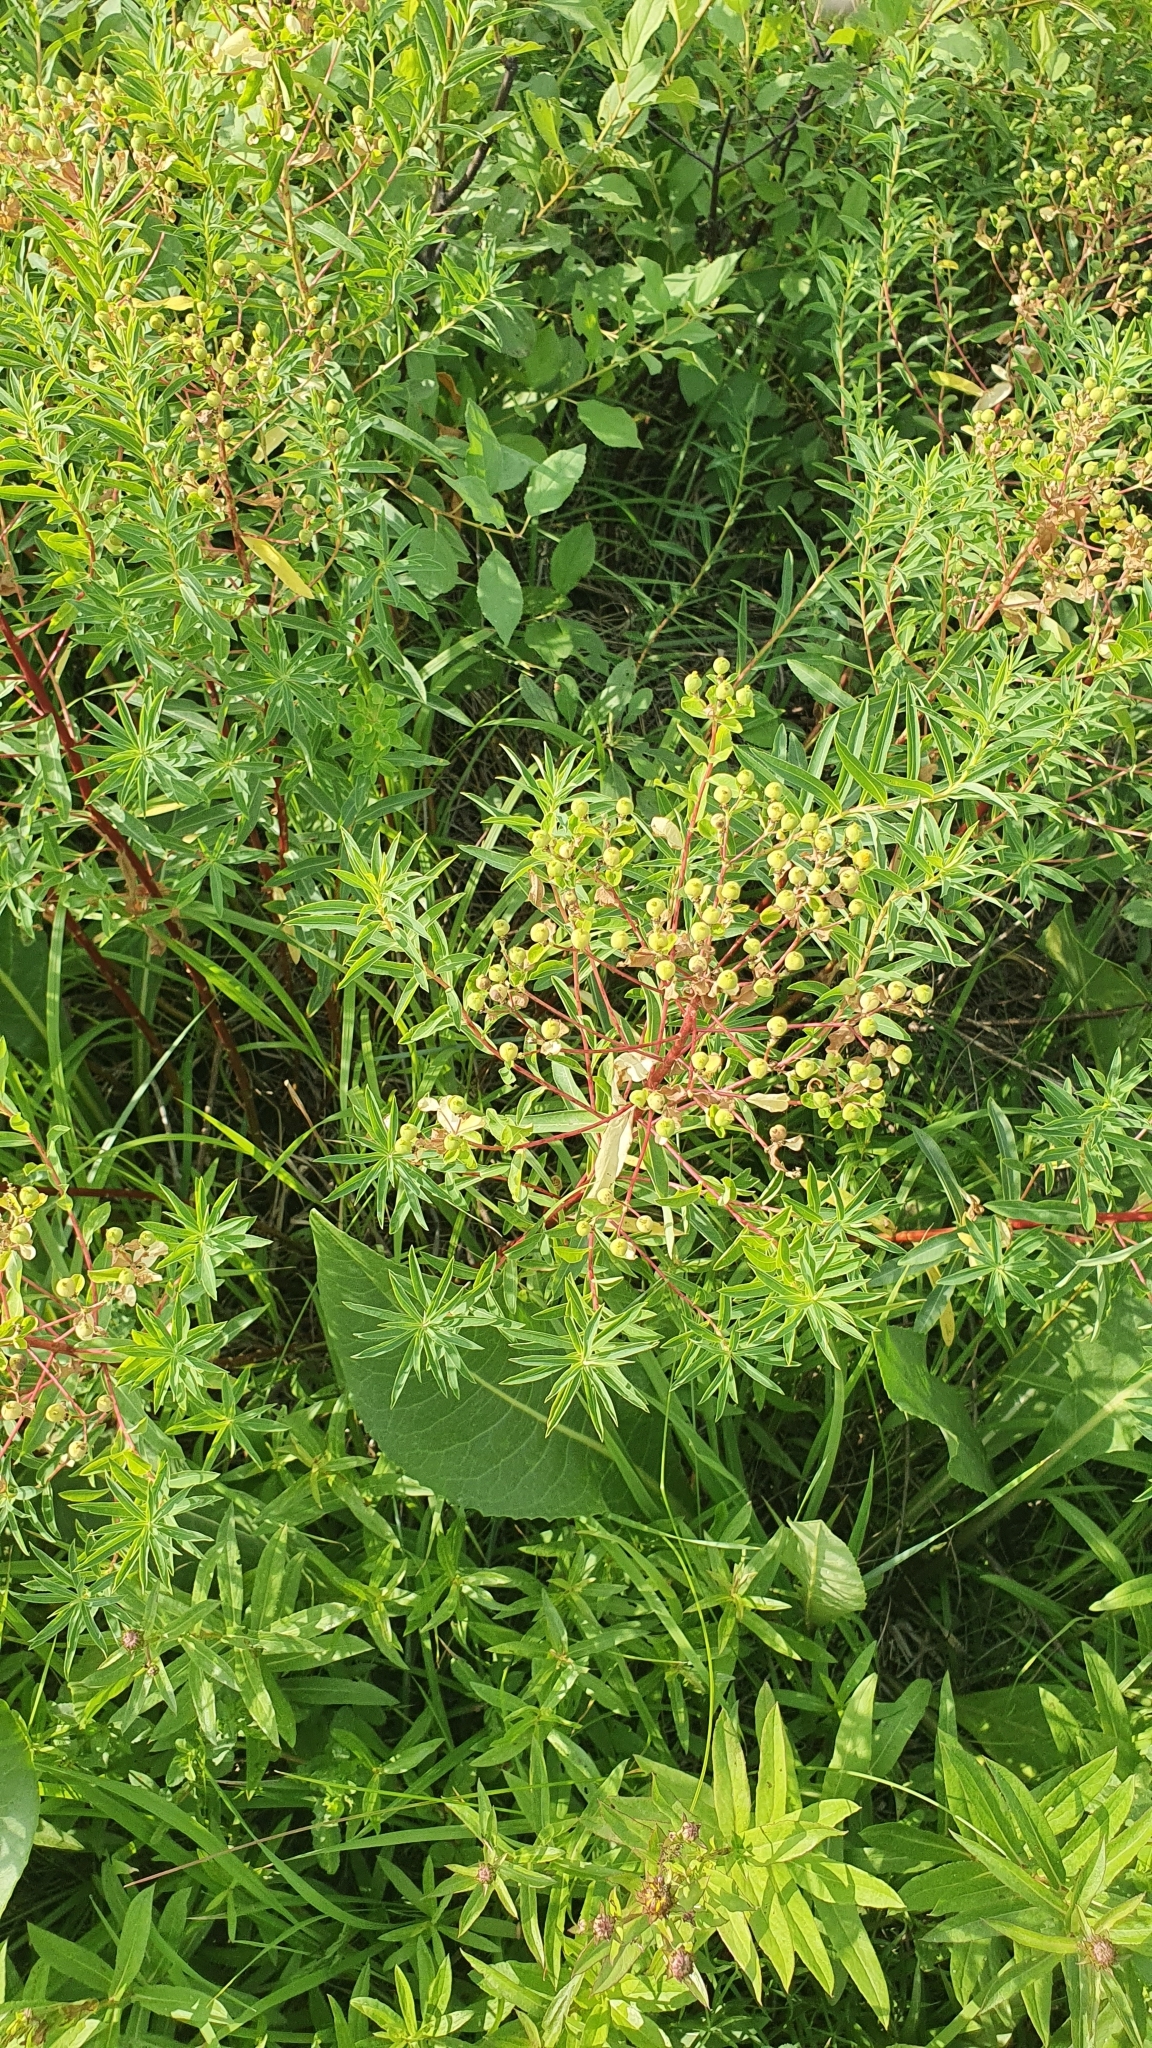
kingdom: Plantae
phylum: Tracheophyta
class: Magnoliopsida
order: Malpighiales
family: Euphorbiaceae
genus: Euphorbia
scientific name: Euphorbia palustris
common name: Marsh spurge
